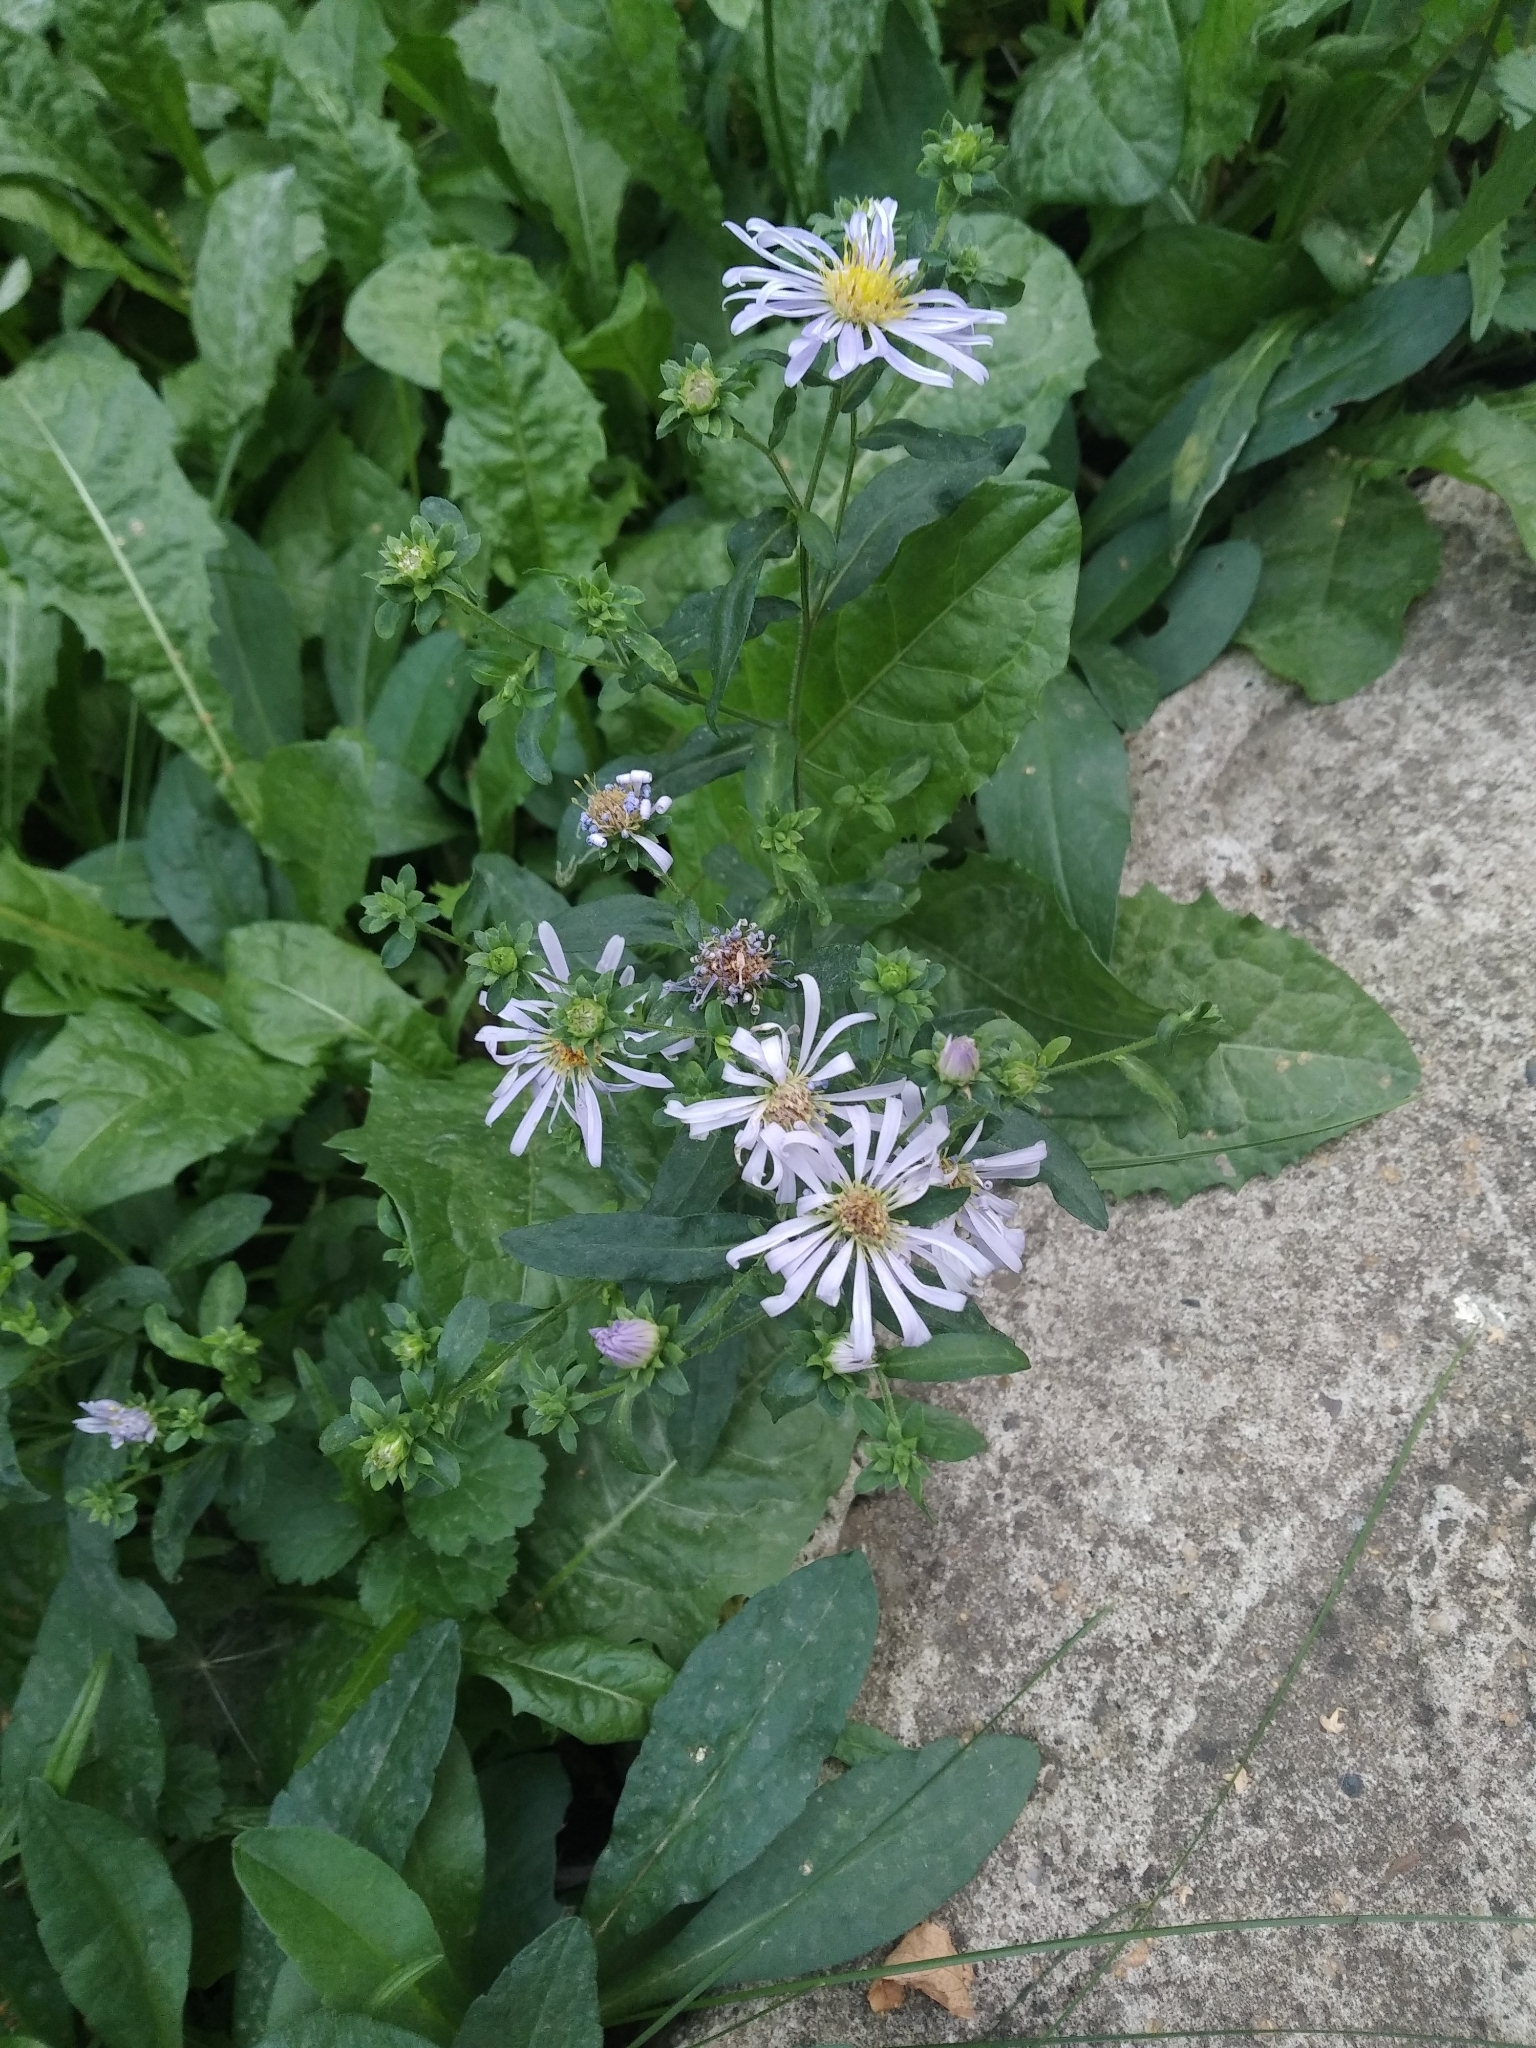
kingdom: Plantae
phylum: Tracheophyta
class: Magnoliopsida
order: Asterales
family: Asteraceae
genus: Symphyotrichum
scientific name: Symphyotrichum novi-belgii
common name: Michaelmas daisy
